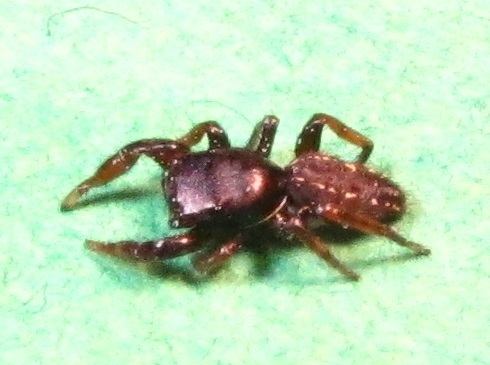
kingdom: Animalia
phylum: Arthropoda
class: Arachnida
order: Araneae
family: Salticidae
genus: Metacyrba
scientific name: Metacyrba taeniola
